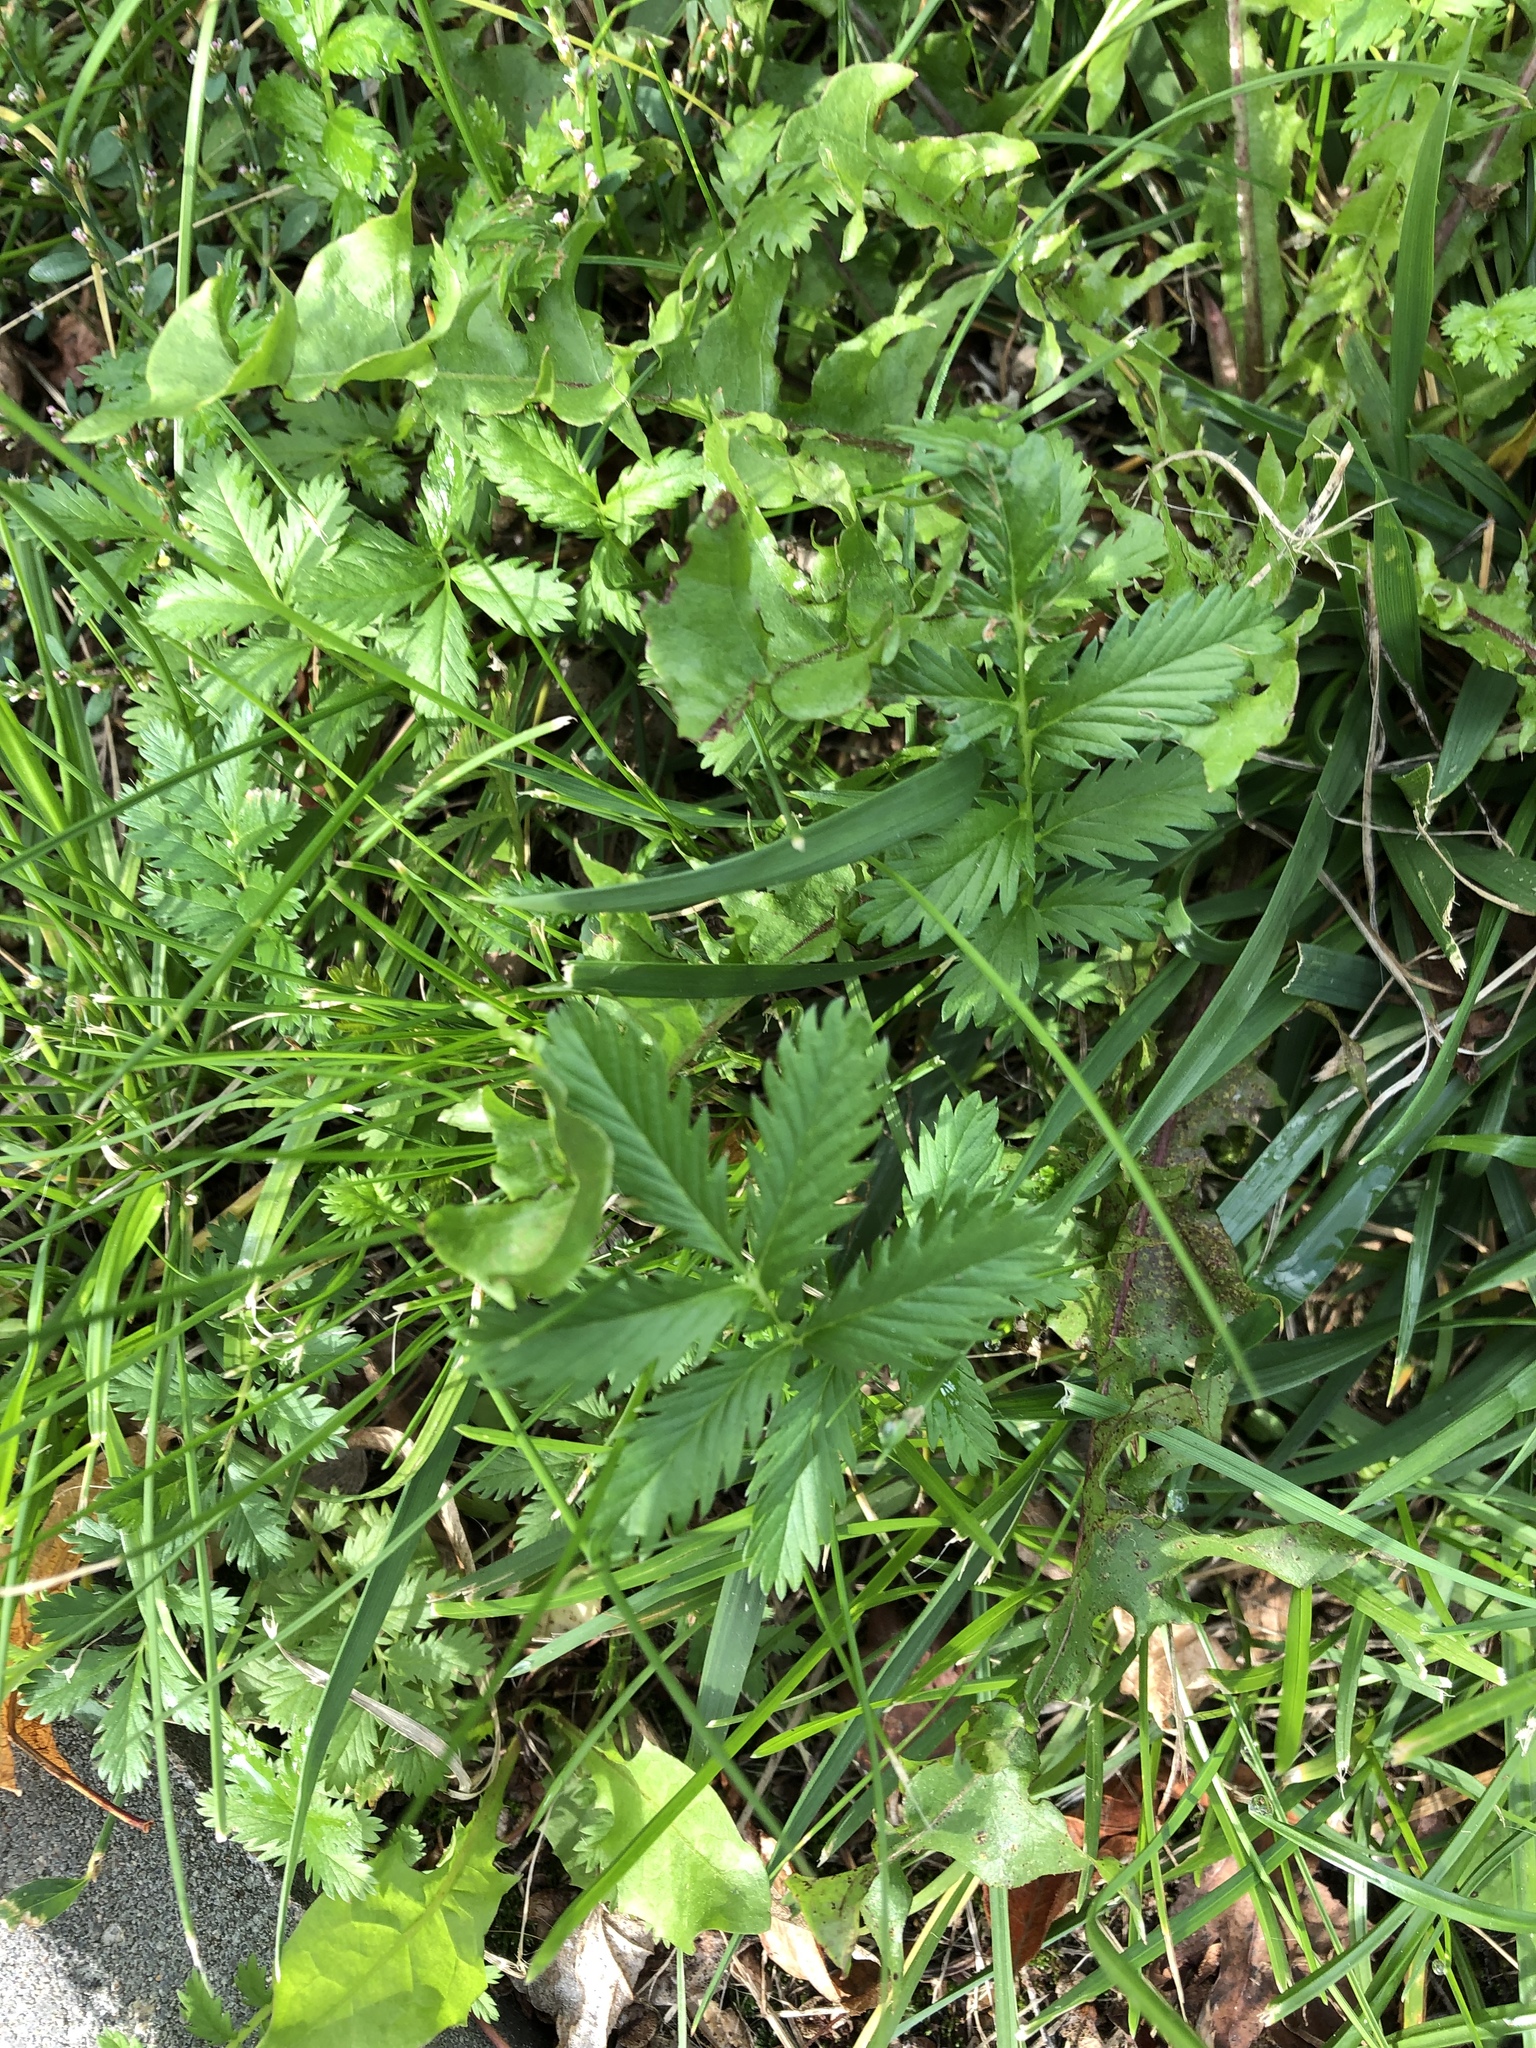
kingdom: Plantae
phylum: Tracheophyta
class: Magnoliopsida
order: Rosales
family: Rosaceae
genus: Argentina
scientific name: Argentina anserina
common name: Common silverweed
